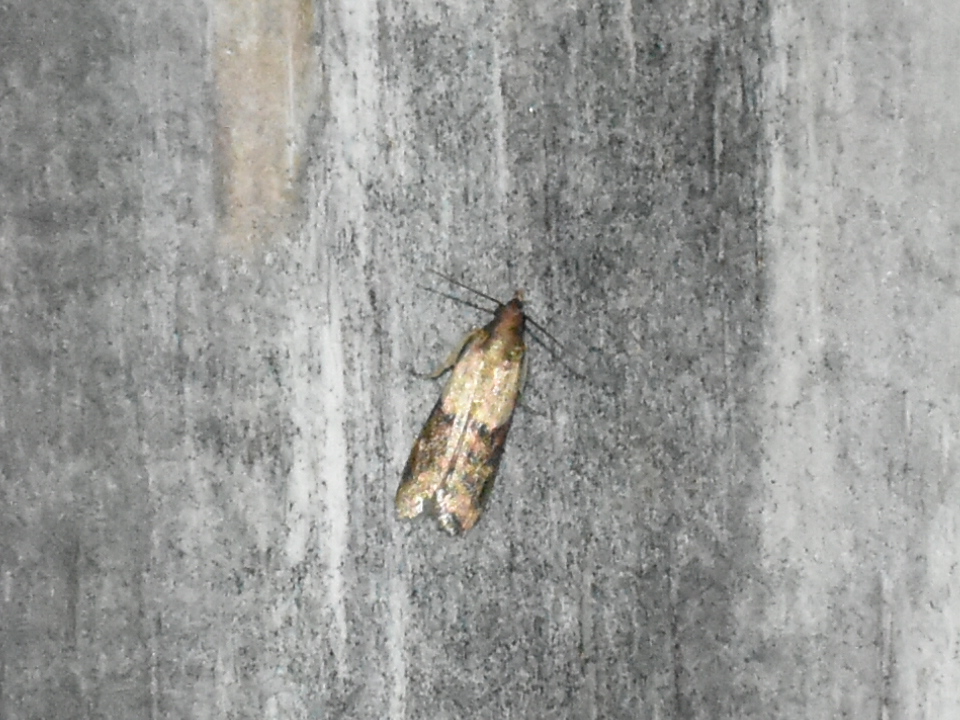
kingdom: Animalia
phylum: Arthropoda
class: Insecta
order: Lepidoptera
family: Pyralidae
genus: Plodia
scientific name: Plodia interpunctella
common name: Indian meal moth
